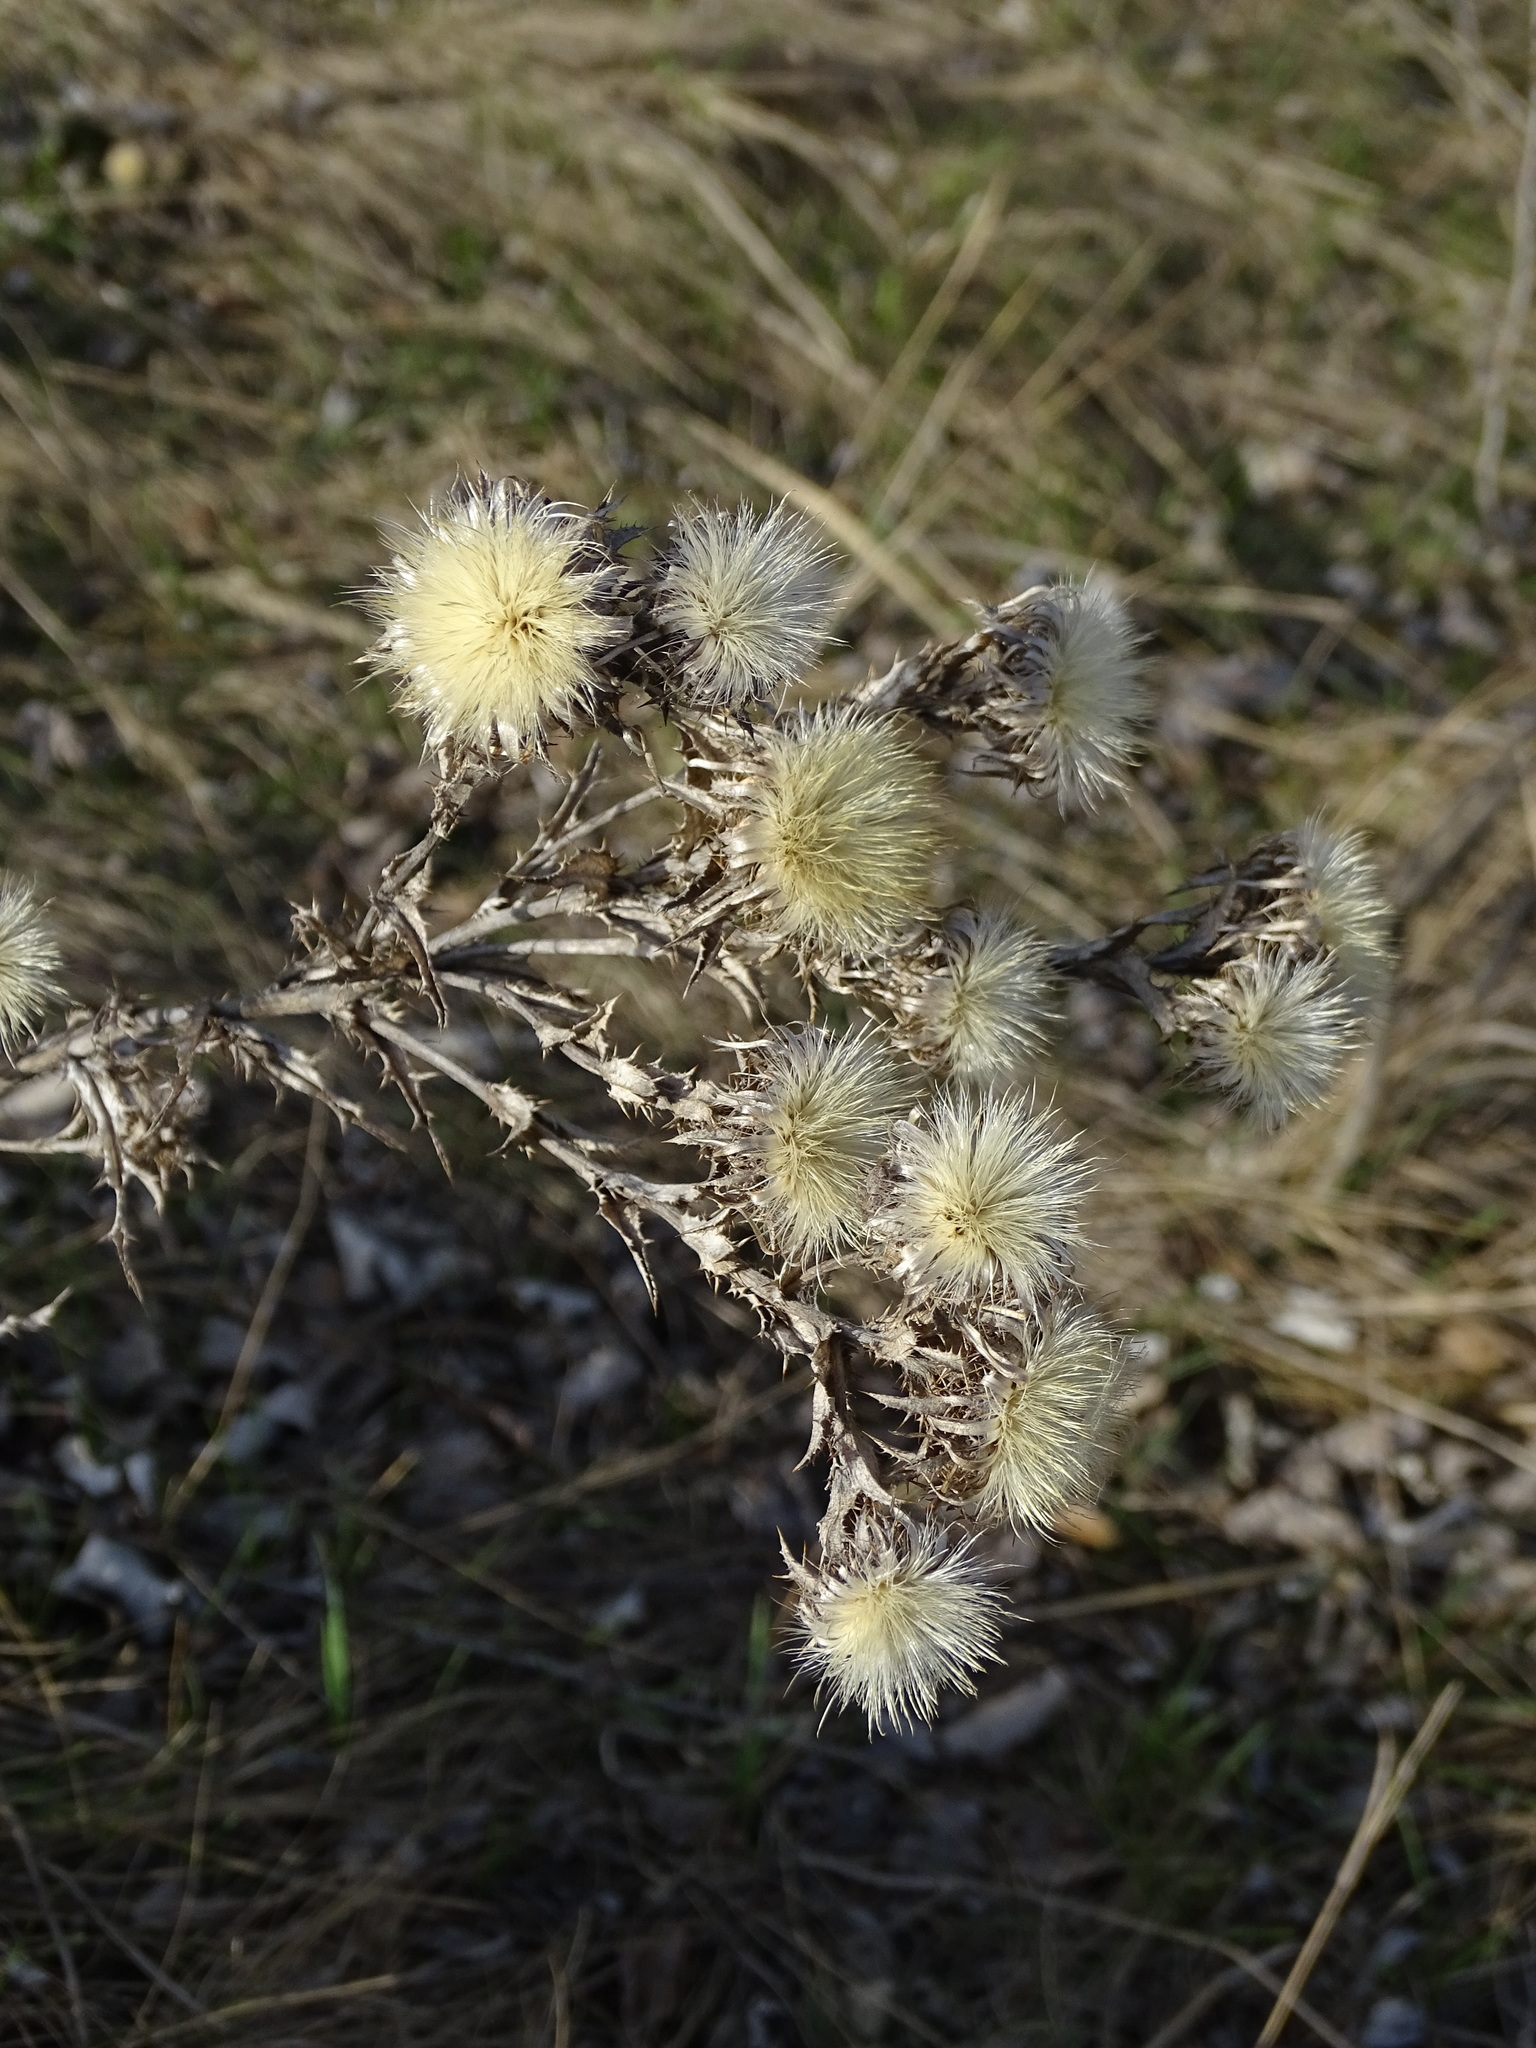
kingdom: Plantae
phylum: Tracheophyta
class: Magnoliopsida
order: Asterales
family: Asteraceae
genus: Carlina
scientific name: Carlina vulgaris
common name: Carline thistle
